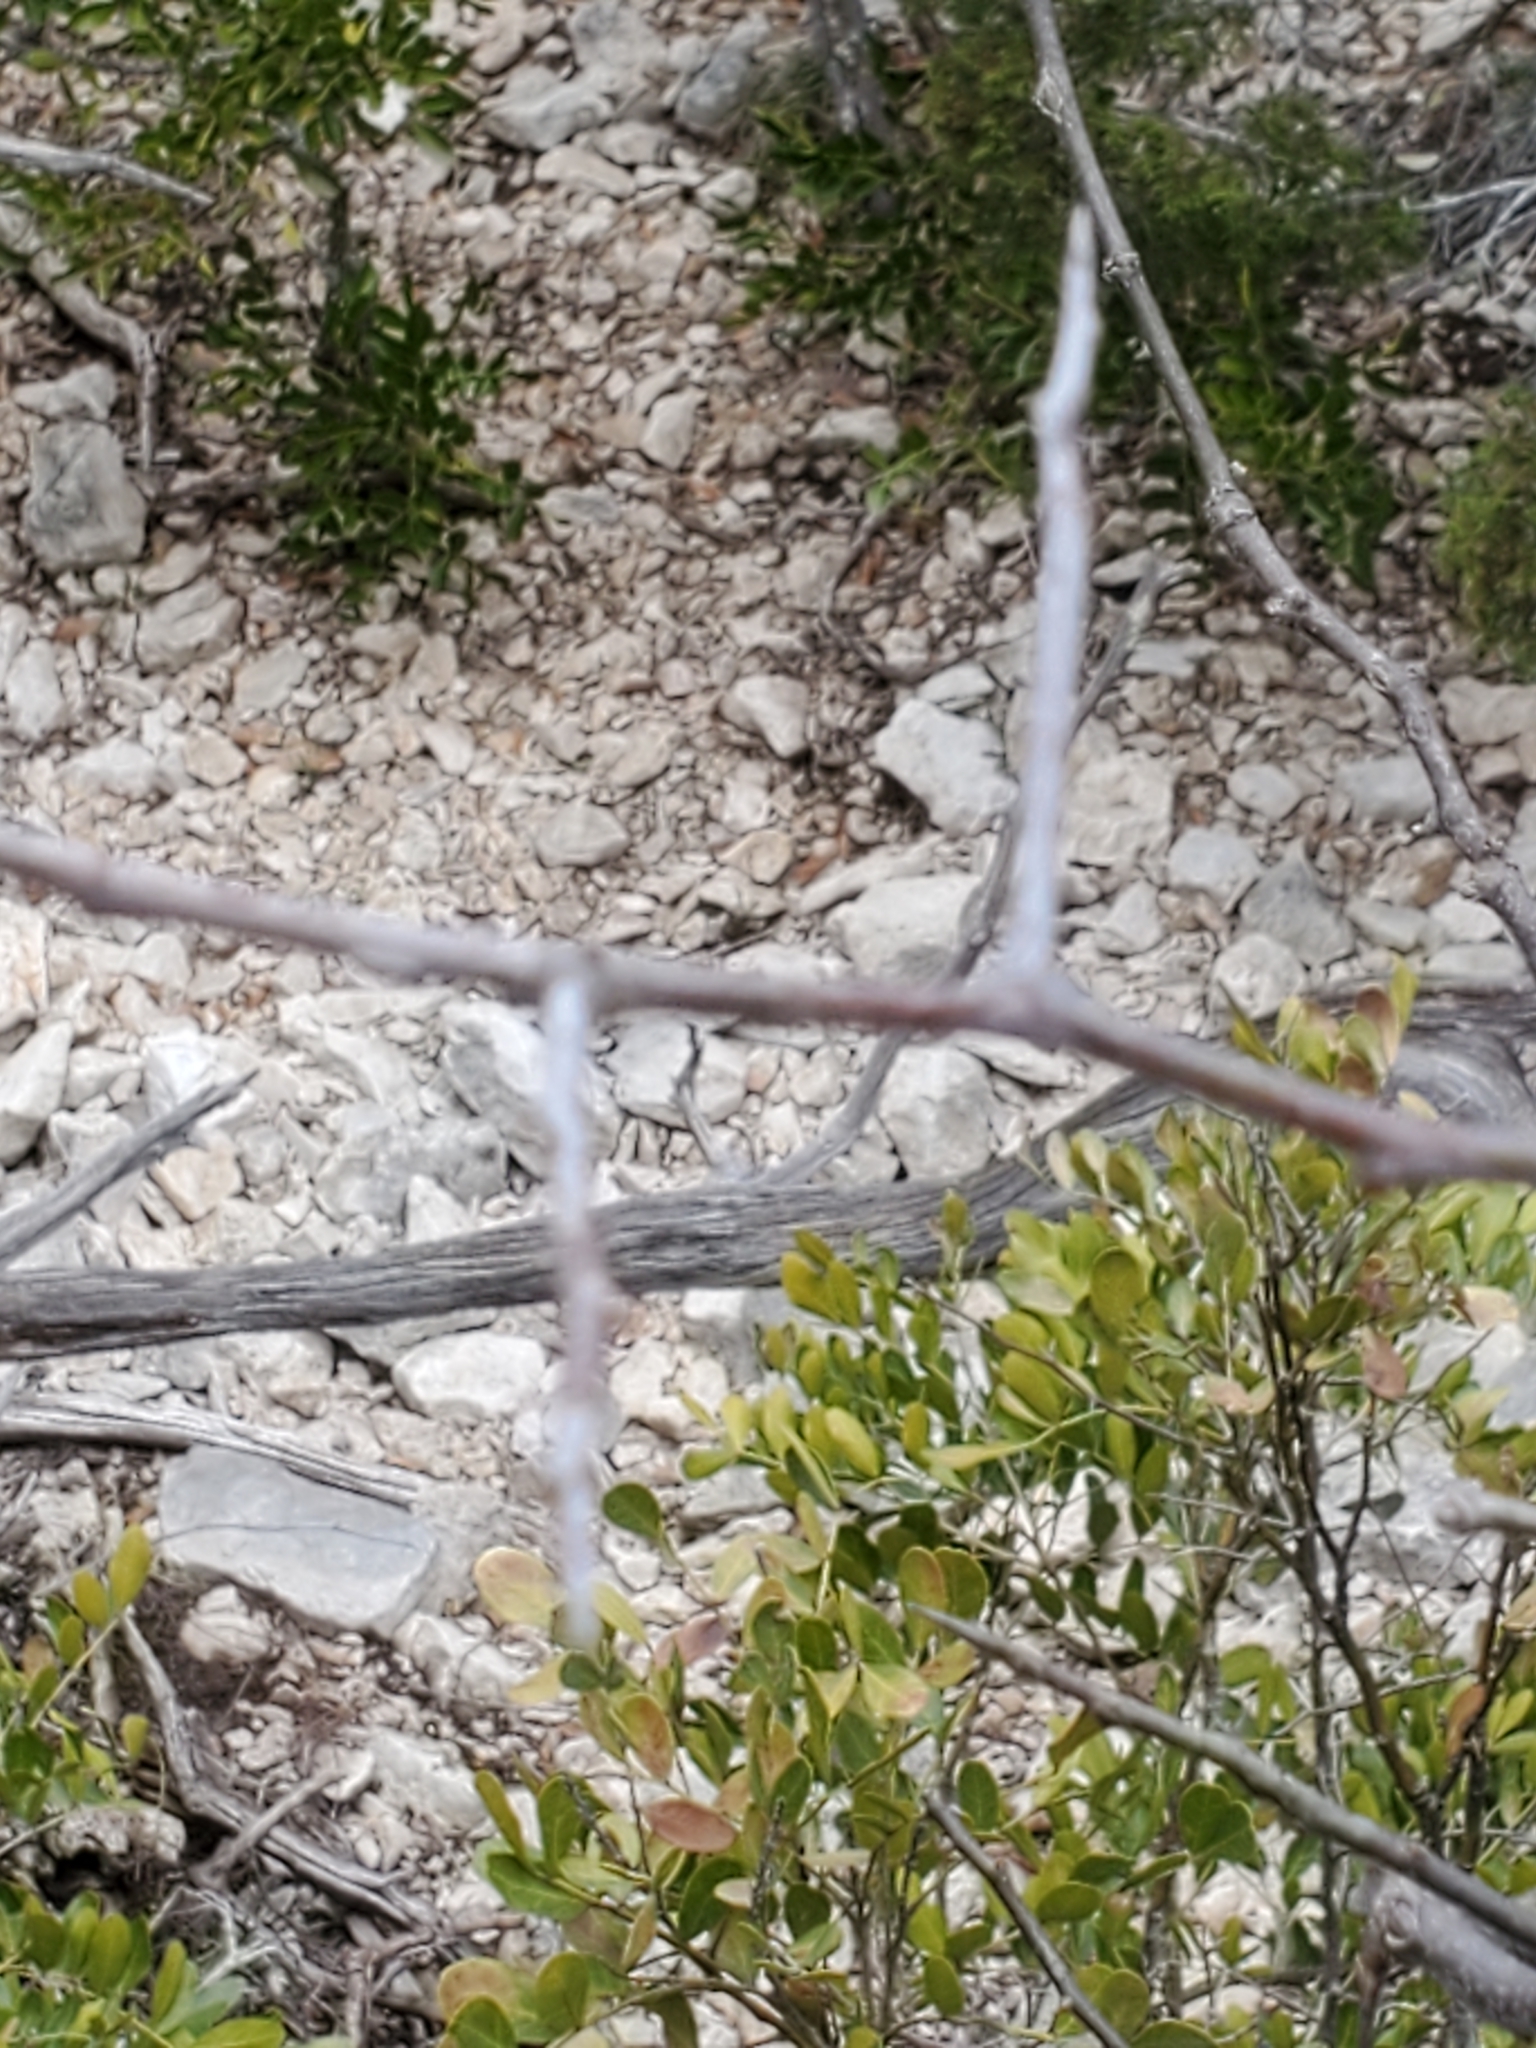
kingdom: Plantae
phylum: Tracheophyta
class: Magnoliopsida
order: Ericales
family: Sapotaceae
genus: Sideroxylon
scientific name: Sideroxylon lanuginosum
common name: Chittamwood
